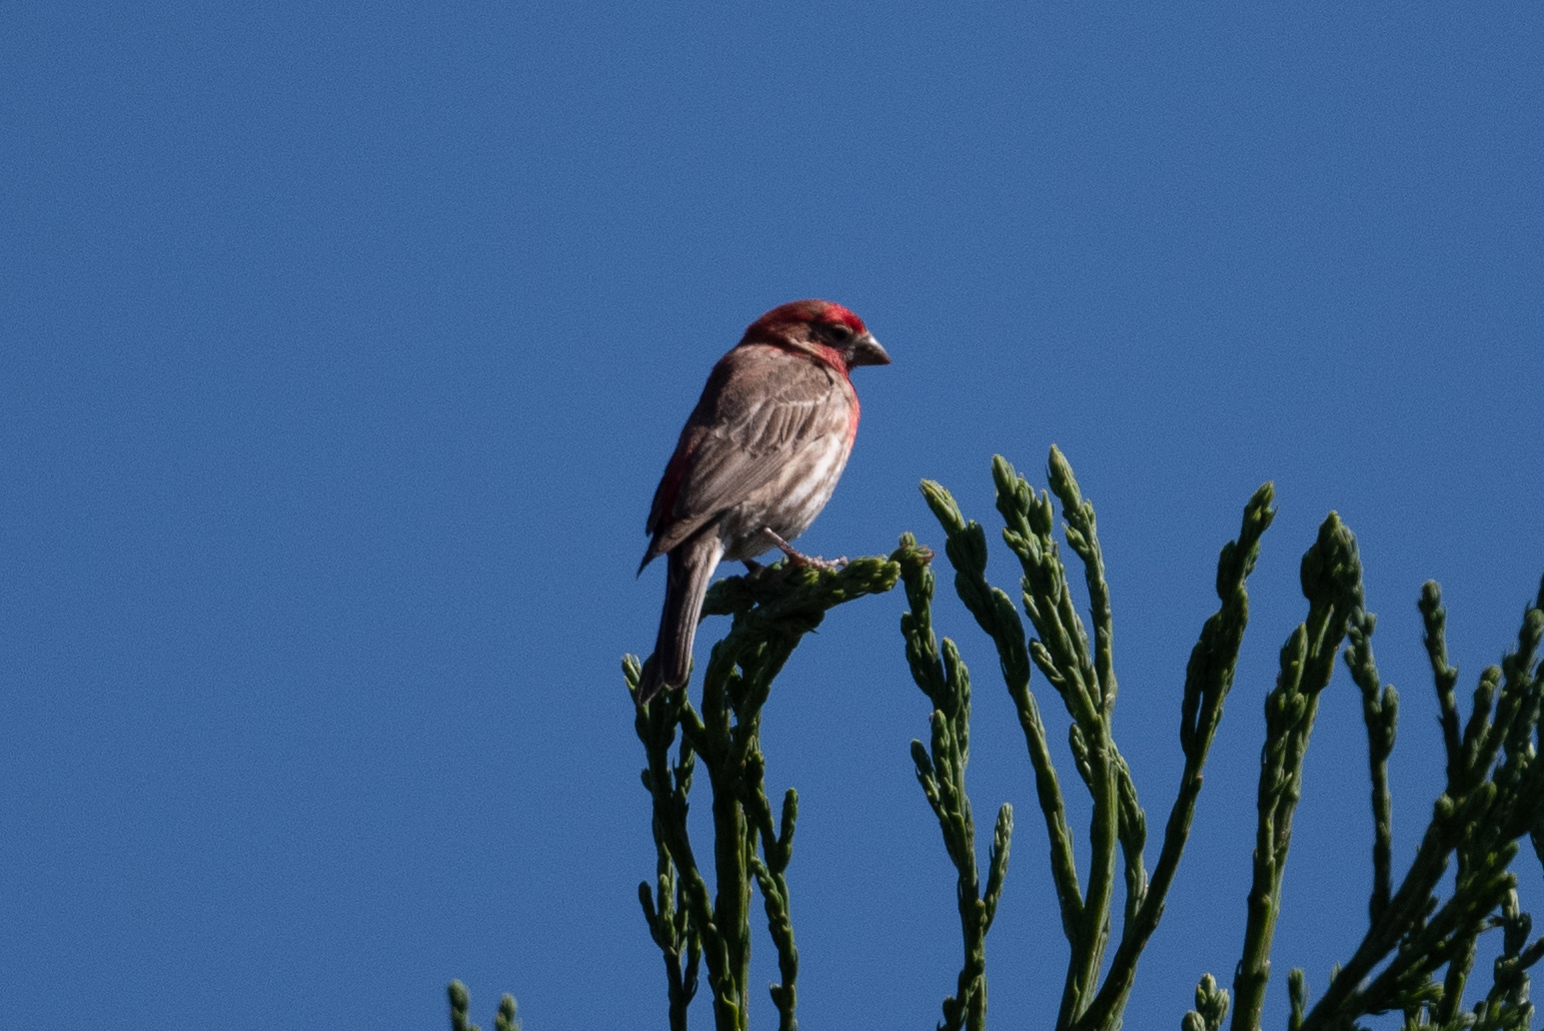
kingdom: Animalia
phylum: Chordata
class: Aves
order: Passeriformes
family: Fringillidae
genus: Haemorhous
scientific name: Haemorhous mexicanus
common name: House finch
